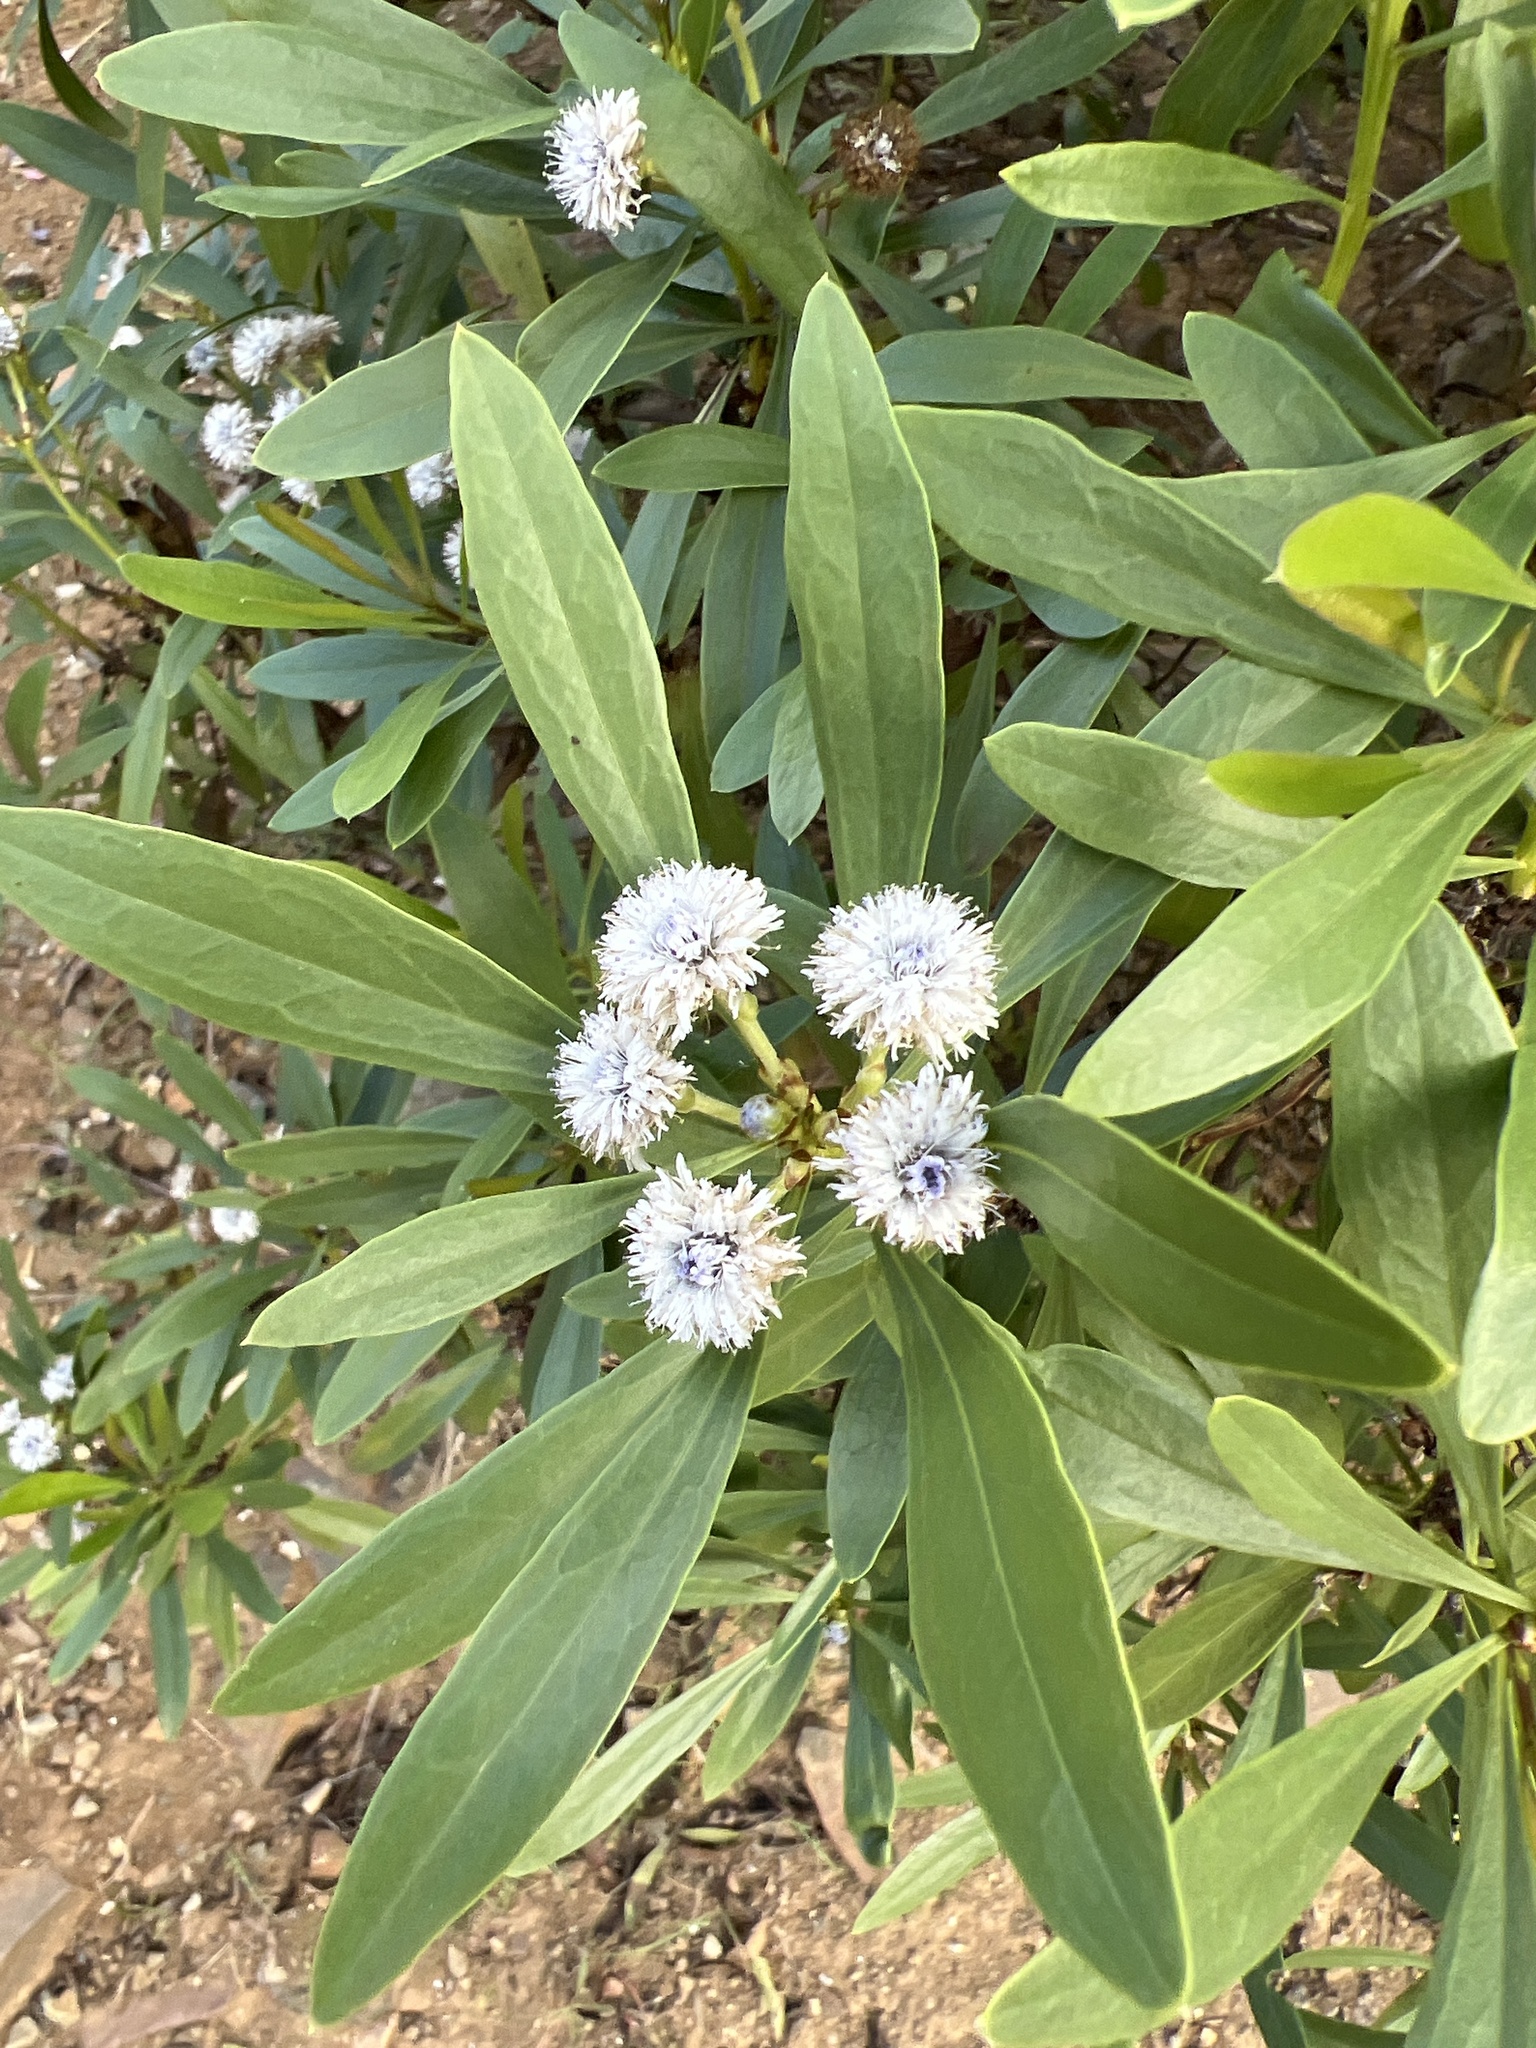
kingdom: Plantae
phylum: Tracheophyta
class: Magnoliopsida
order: Lamiales
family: Plantaginaceae
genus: Globularia
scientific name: Globularia salicina
